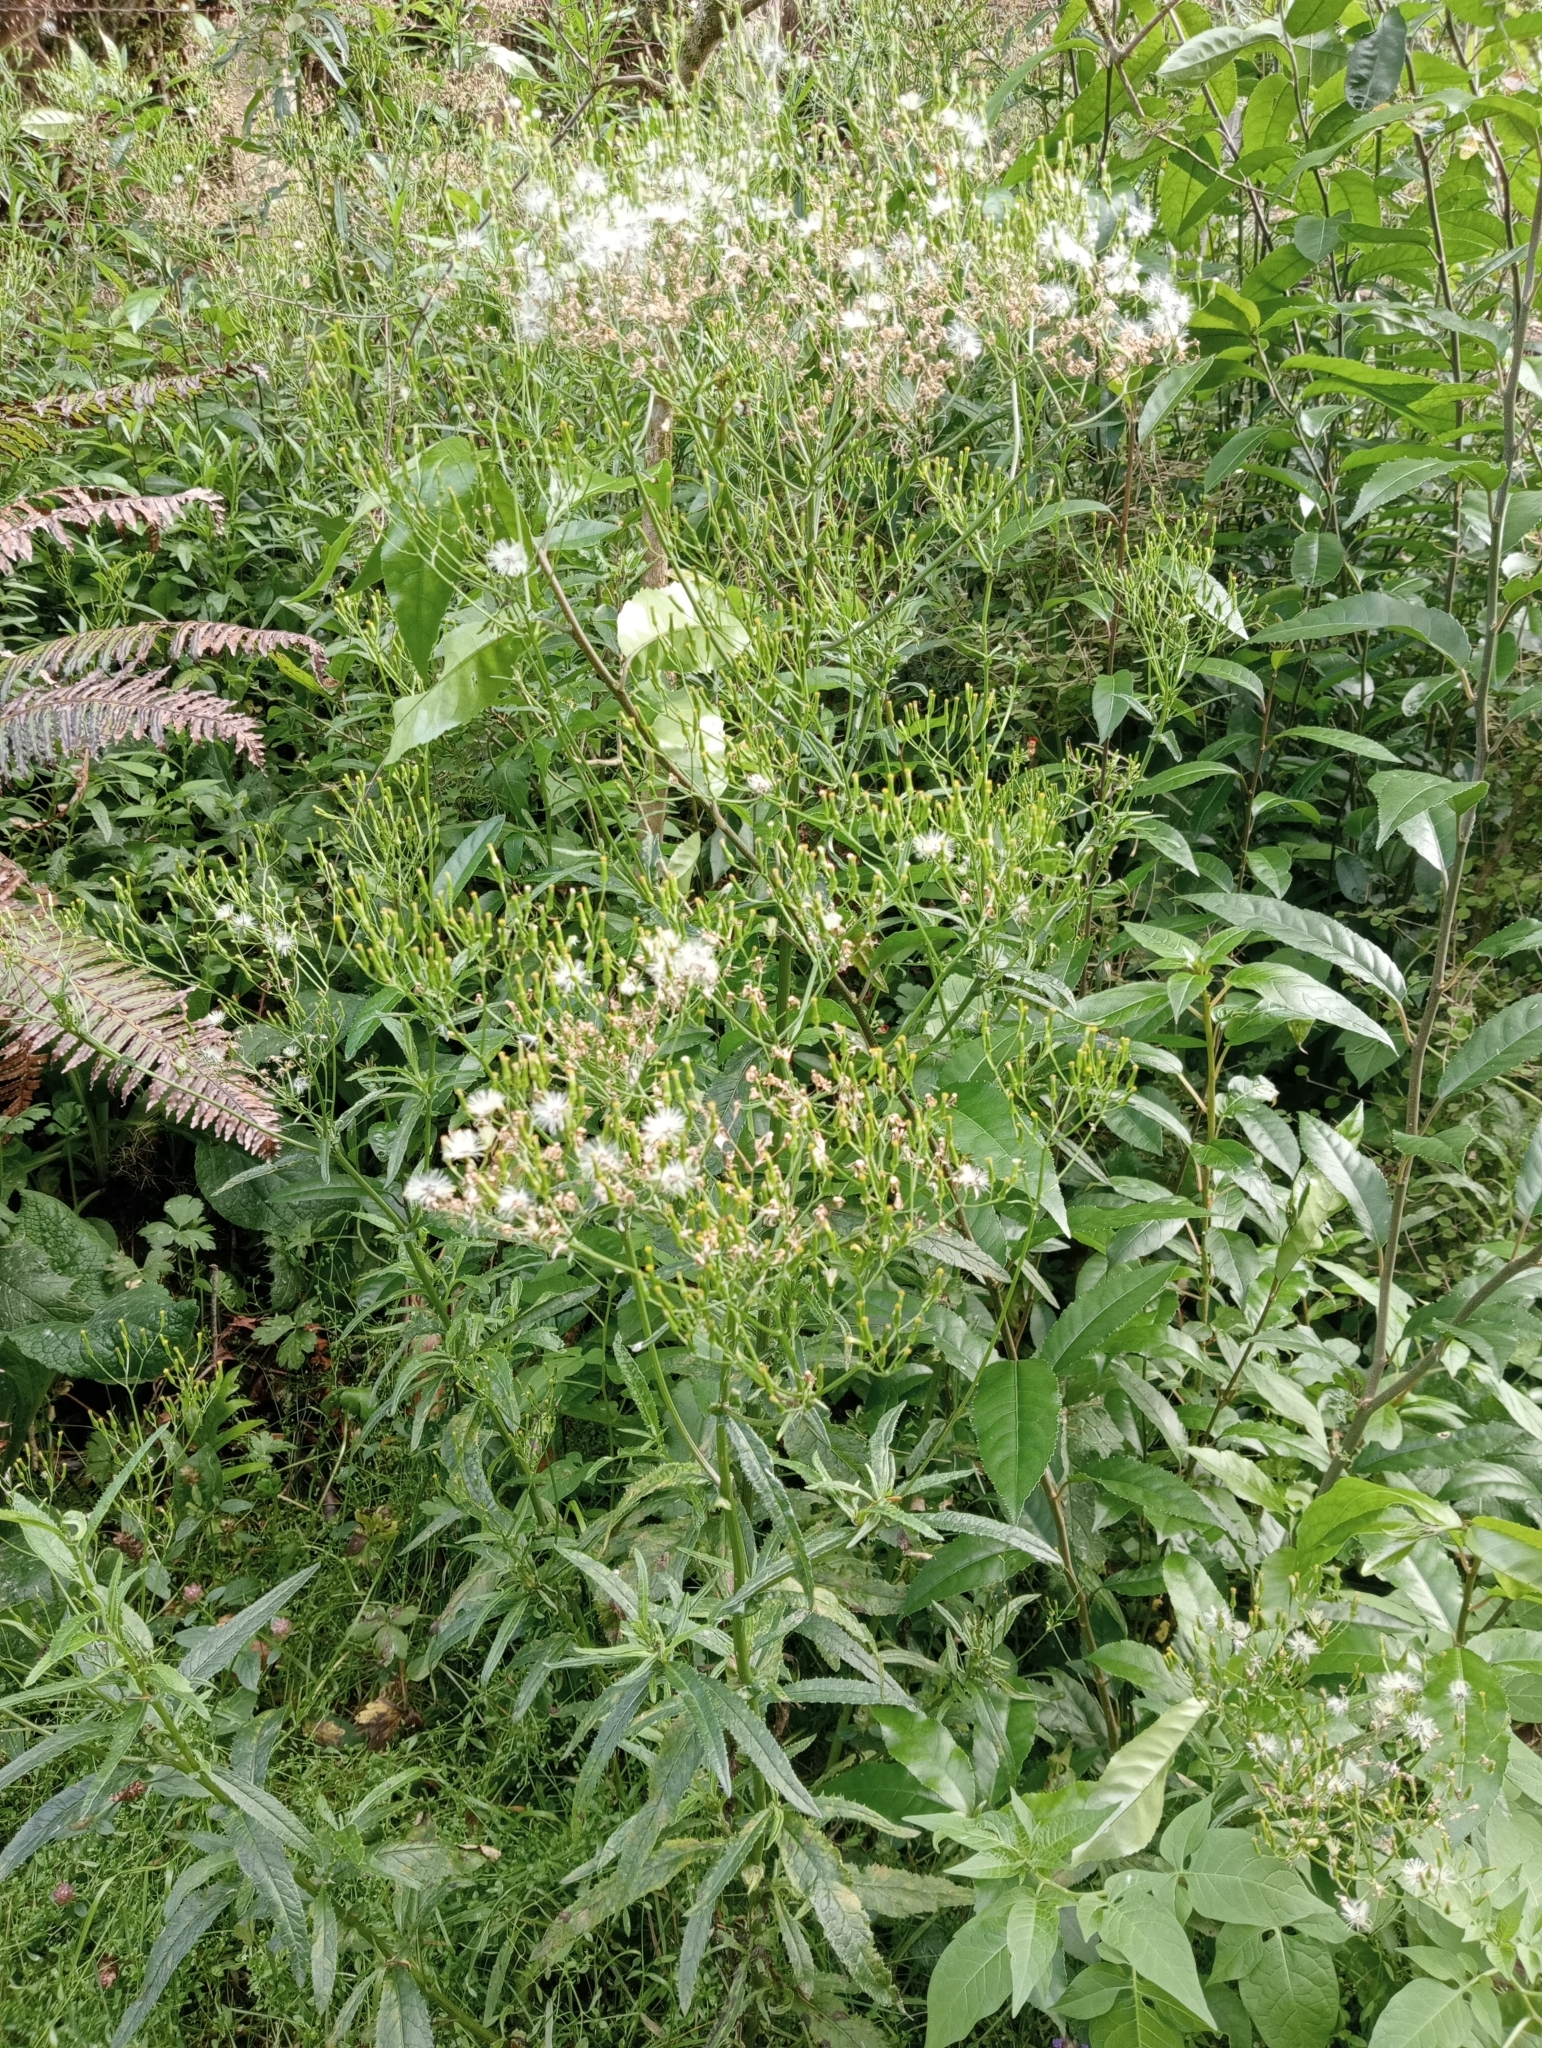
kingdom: Plantae
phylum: Tracheophyta
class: Magnoliopsida
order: Asterales
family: Asteraceae
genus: Senecio
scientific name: Senecio minimus
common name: Toothed fireweed
